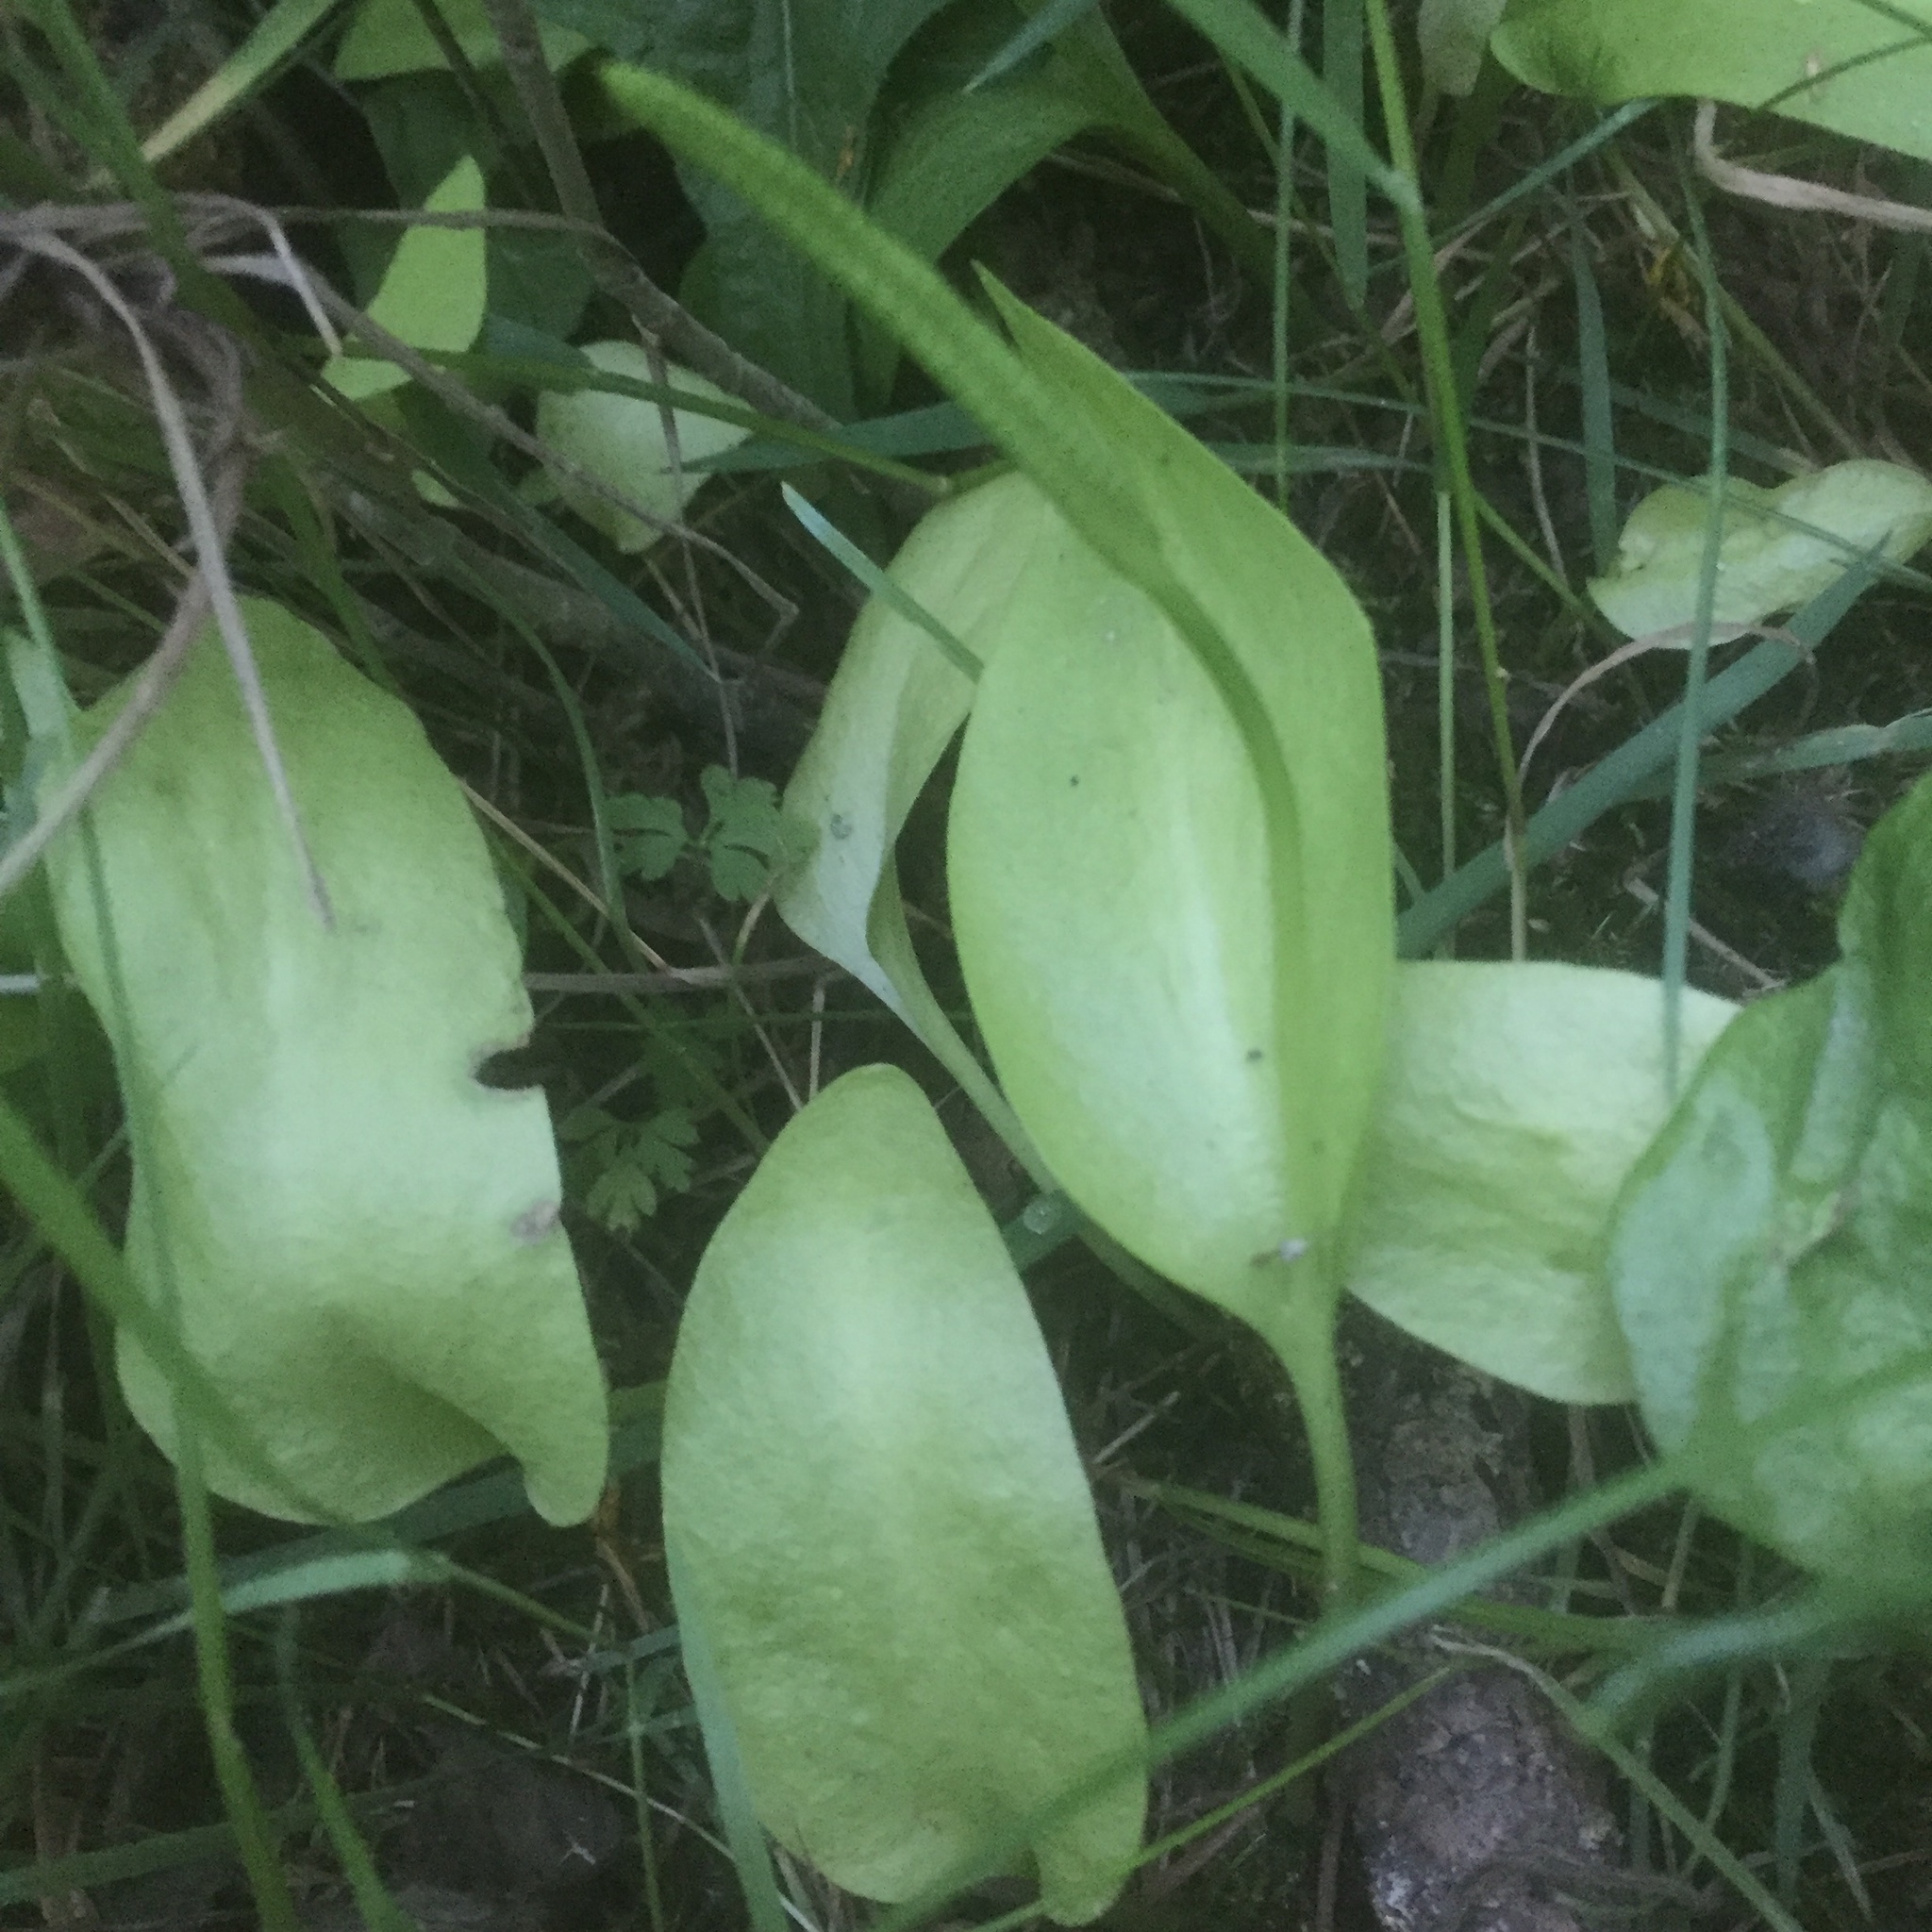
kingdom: Plantae
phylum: Tracheophyta
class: Polypodiopsida
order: Ophioglossales
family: Ophioglossaceae
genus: Ophioglossum
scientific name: Ophioglossum vulgatum
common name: Adder's-tongue
